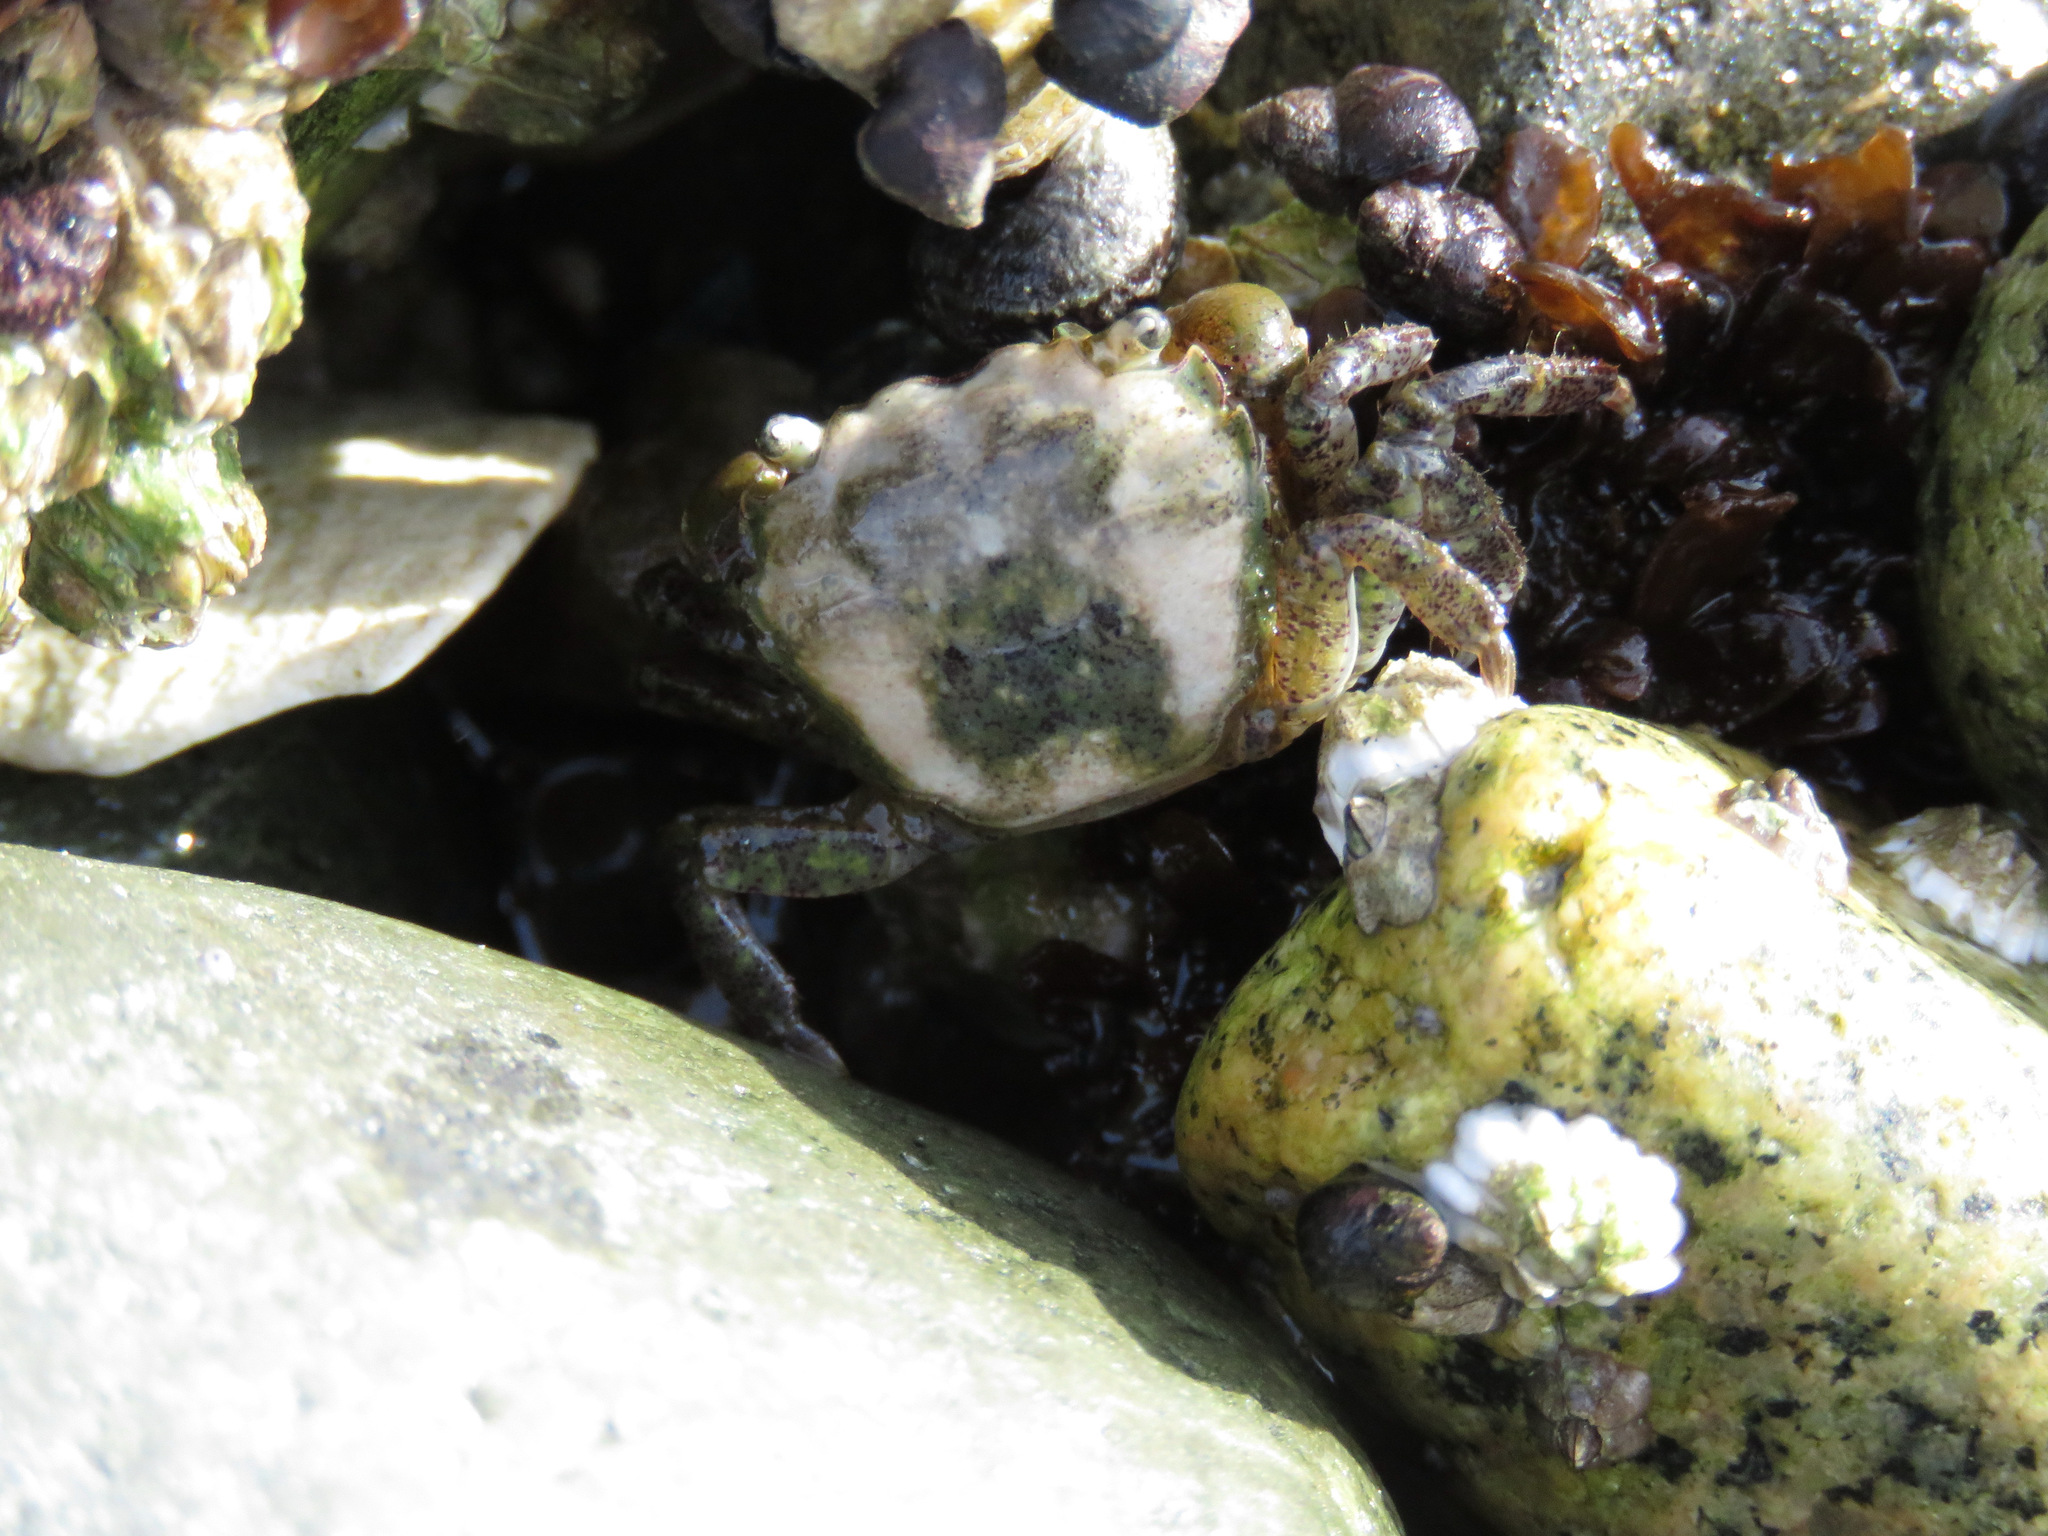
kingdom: Animalia
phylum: Arthropoda
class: Malacostraca
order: Decapoda
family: Varunidae
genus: Hemigrapsus
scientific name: Hemigrapsus oregonensis
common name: Yellow shore crab
